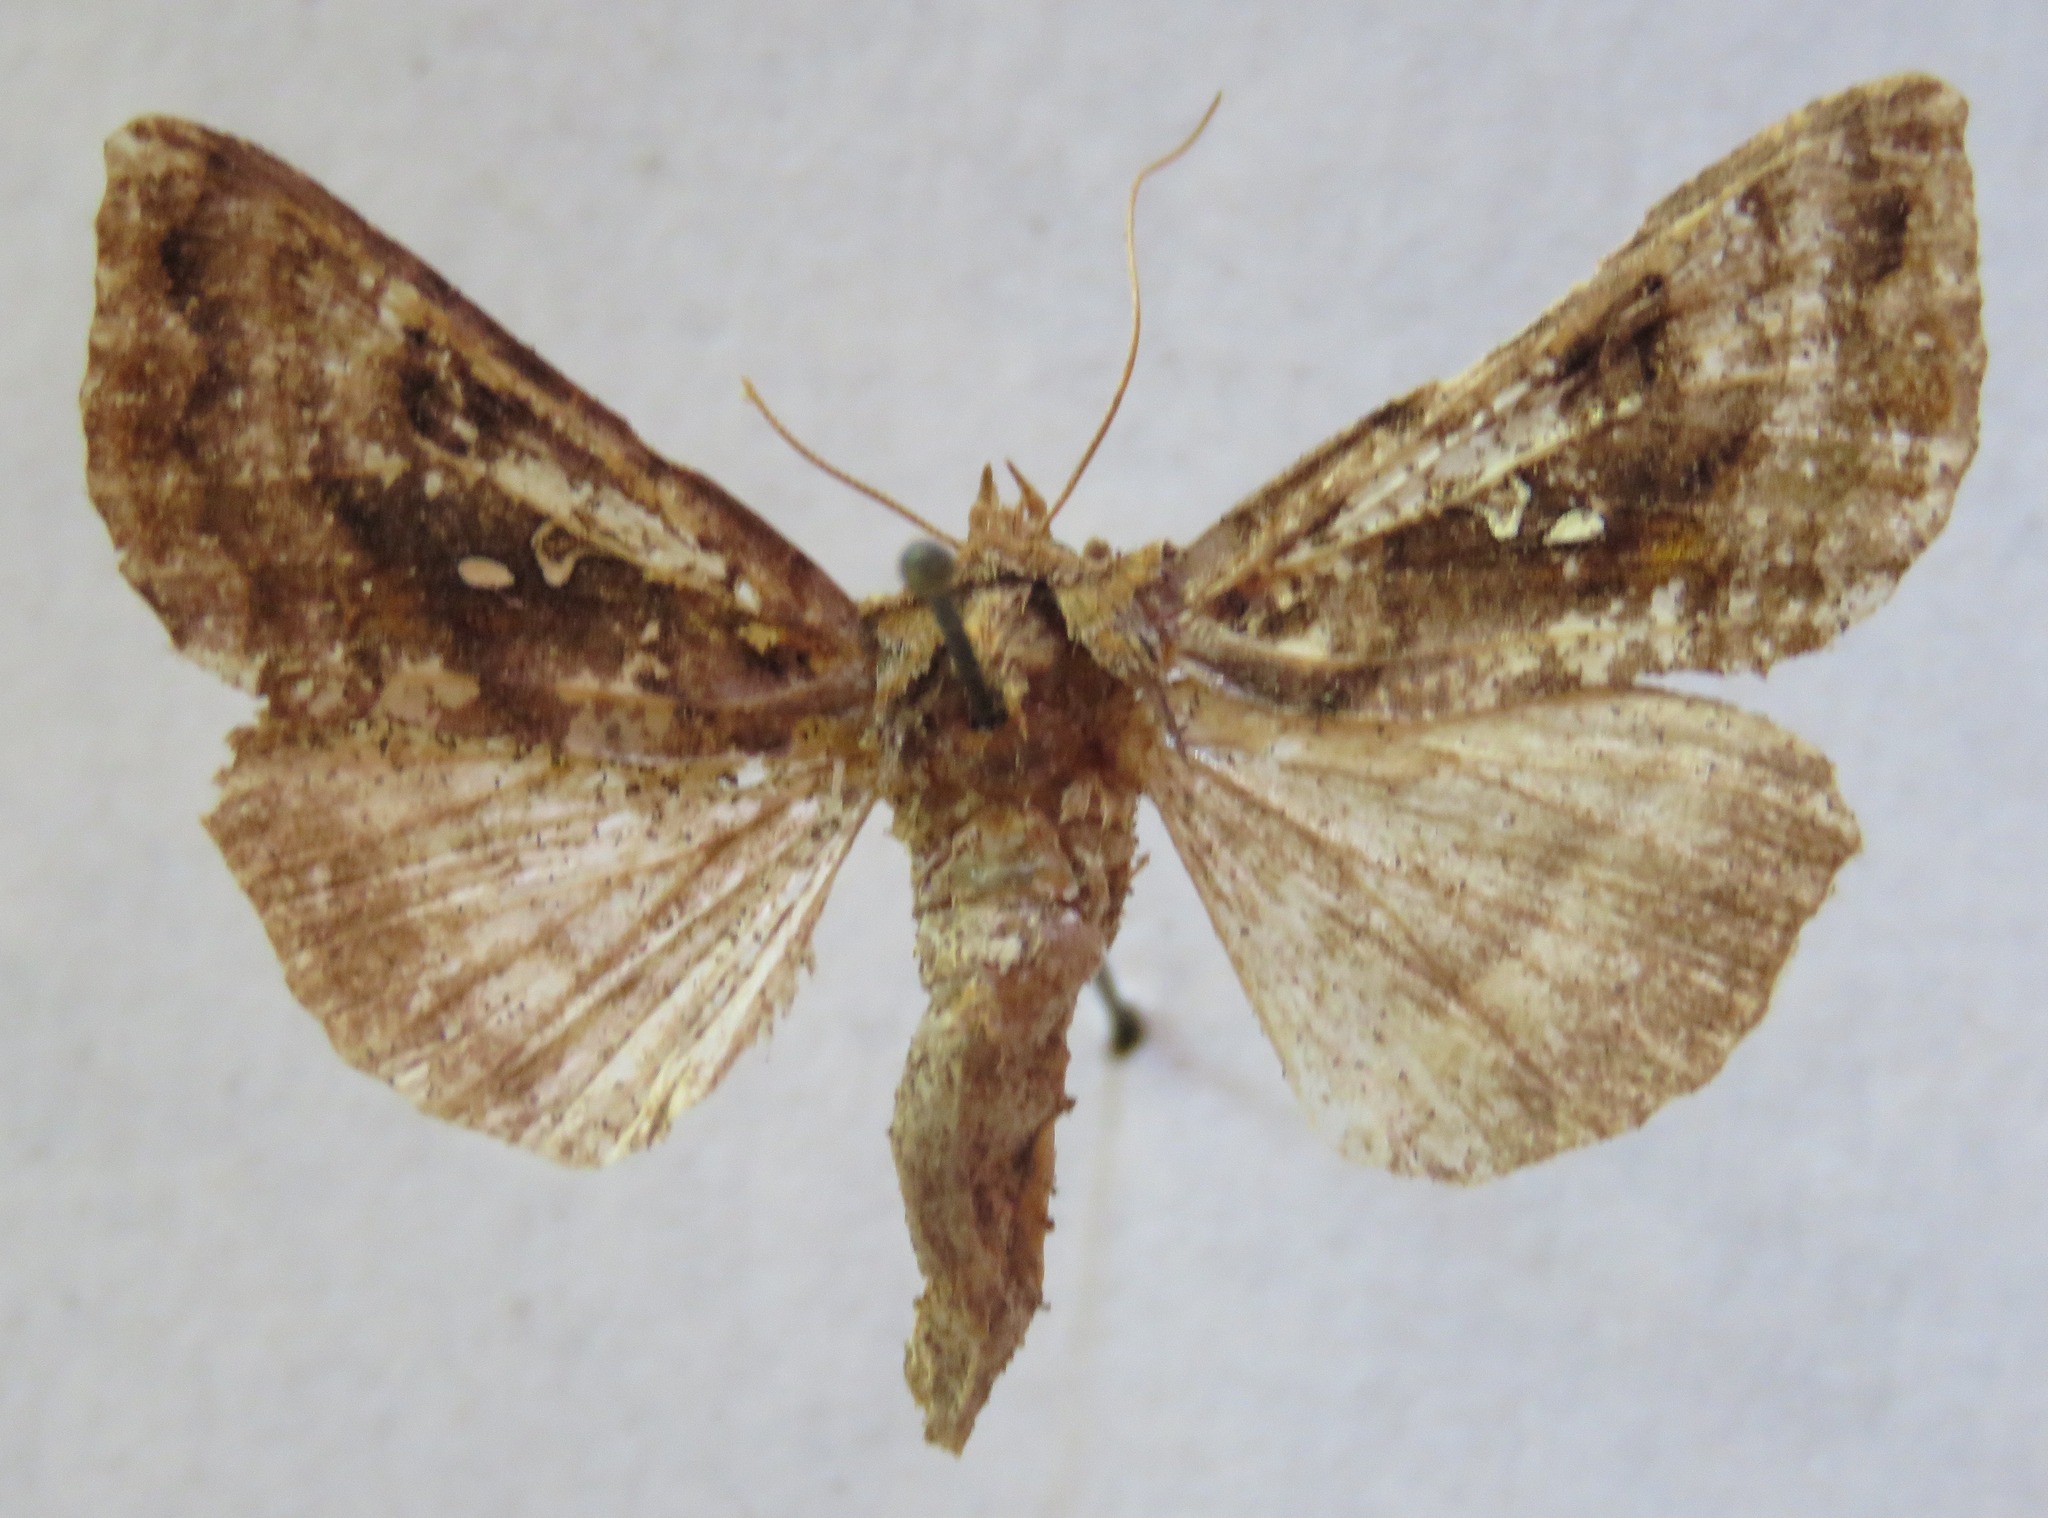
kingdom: Animalia
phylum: Arthropoda
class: Insecta
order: Lepidoptera
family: Noctuidae
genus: Autographa
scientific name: Autographa pulchrina
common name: Beautiful golden y
